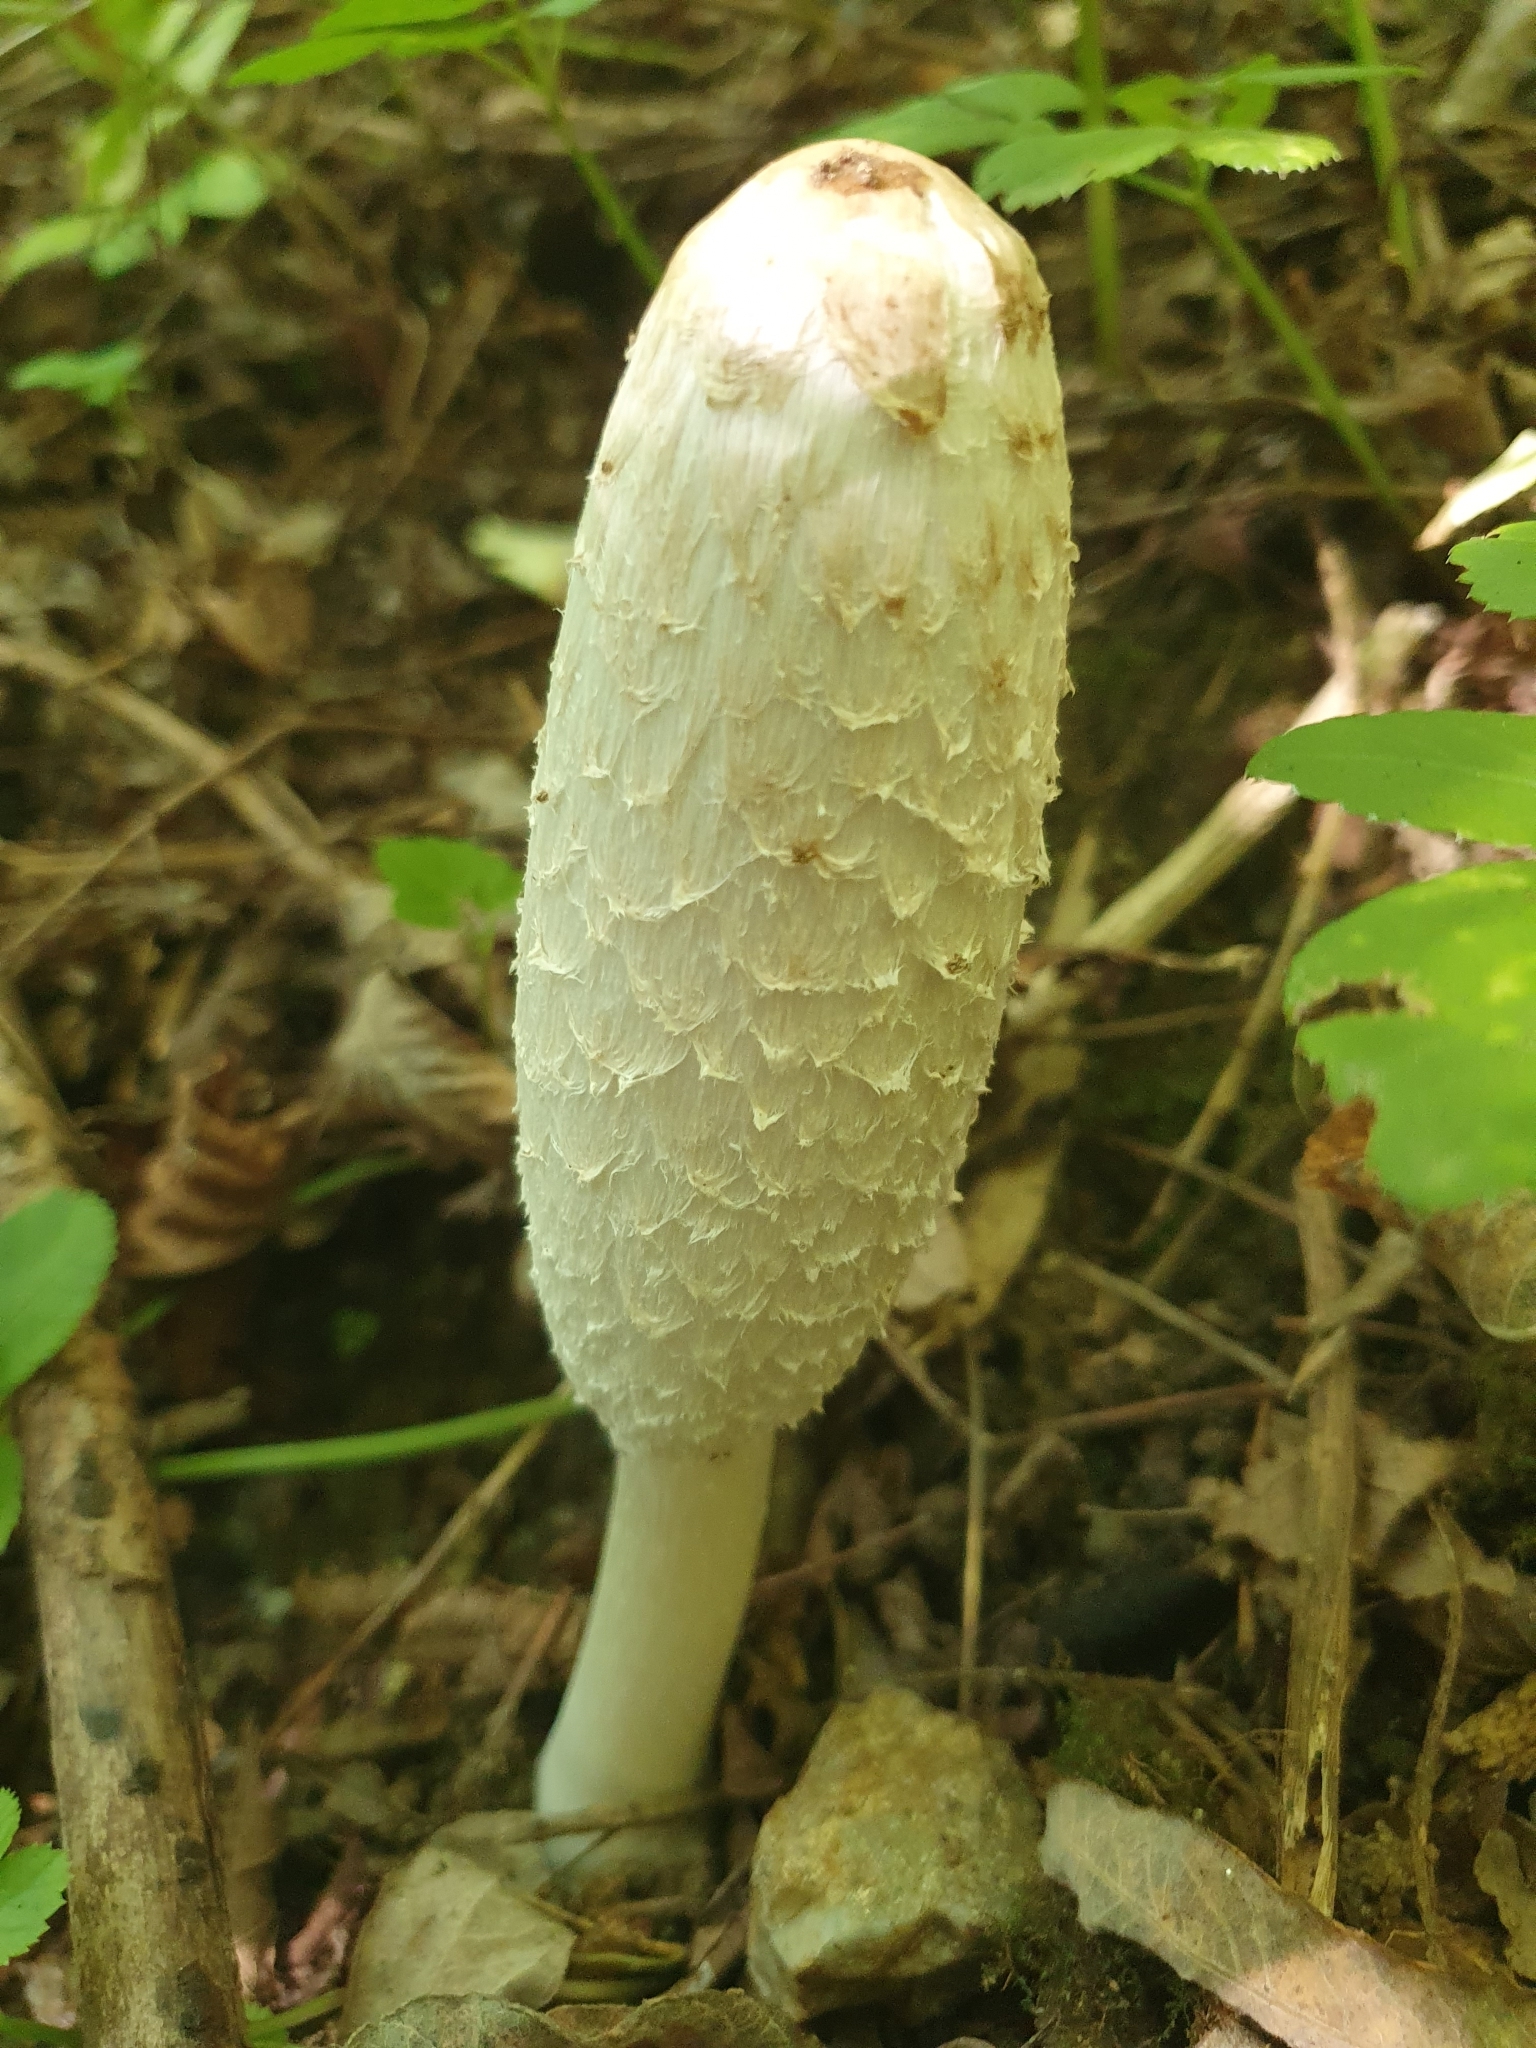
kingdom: Fungi
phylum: Basidiomycota
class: Agaricomycetes
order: Agaricales
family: Agaricaceae
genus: Coprinus
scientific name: Coprinus comatus
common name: Lawyer's wig
